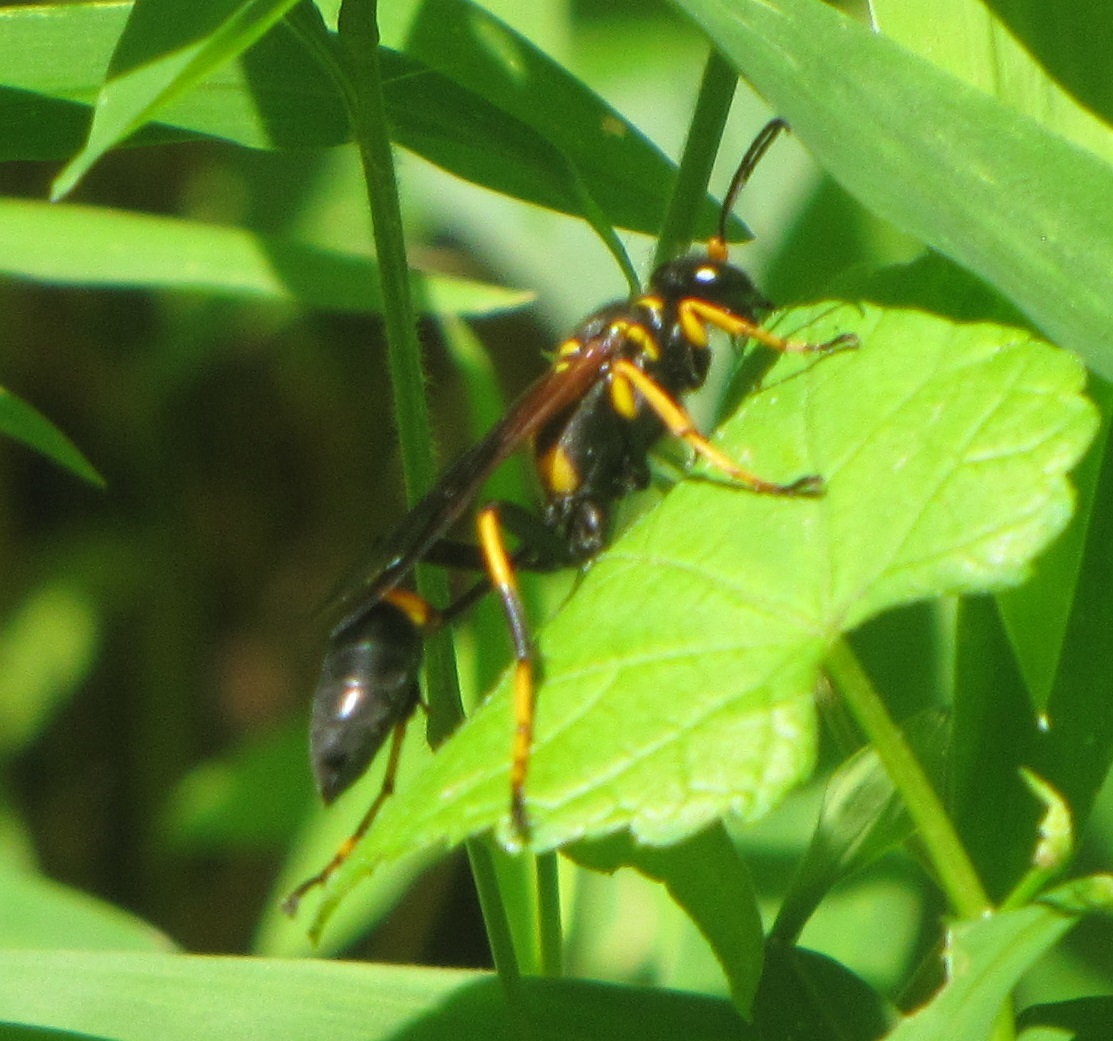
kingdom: Animalia
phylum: Arthropoda
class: Insecta
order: Hymenoptera
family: Sphecidae
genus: Sceliphron
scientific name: Sceliphron caementarium
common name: Mud dauber
